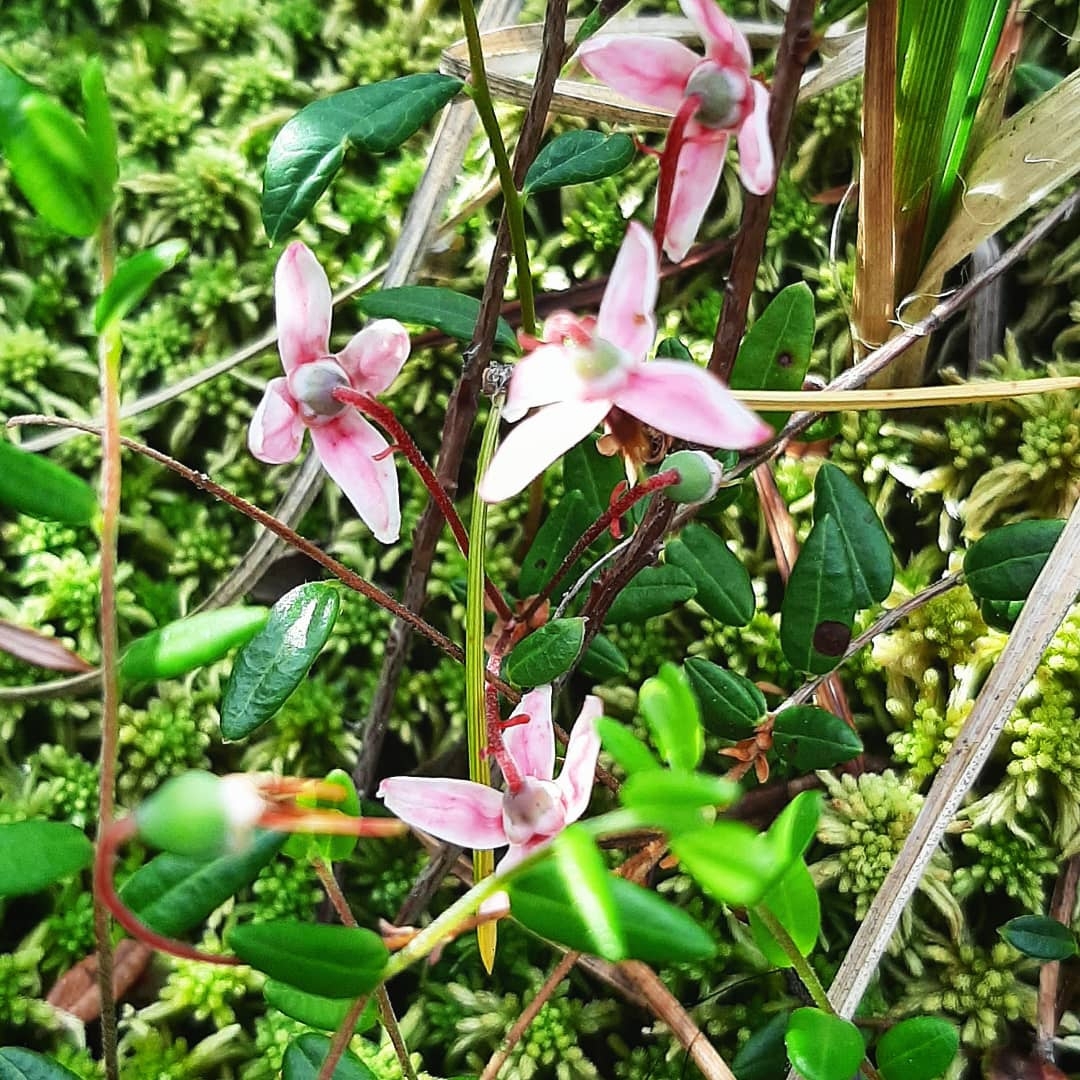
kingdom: Plantae
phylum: Tracheophyta
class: Magnoliopsida
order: Ericales
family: Ericaceae
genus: Vaccinium
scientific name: Vaccinium oxycoccos
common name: Cranberry
